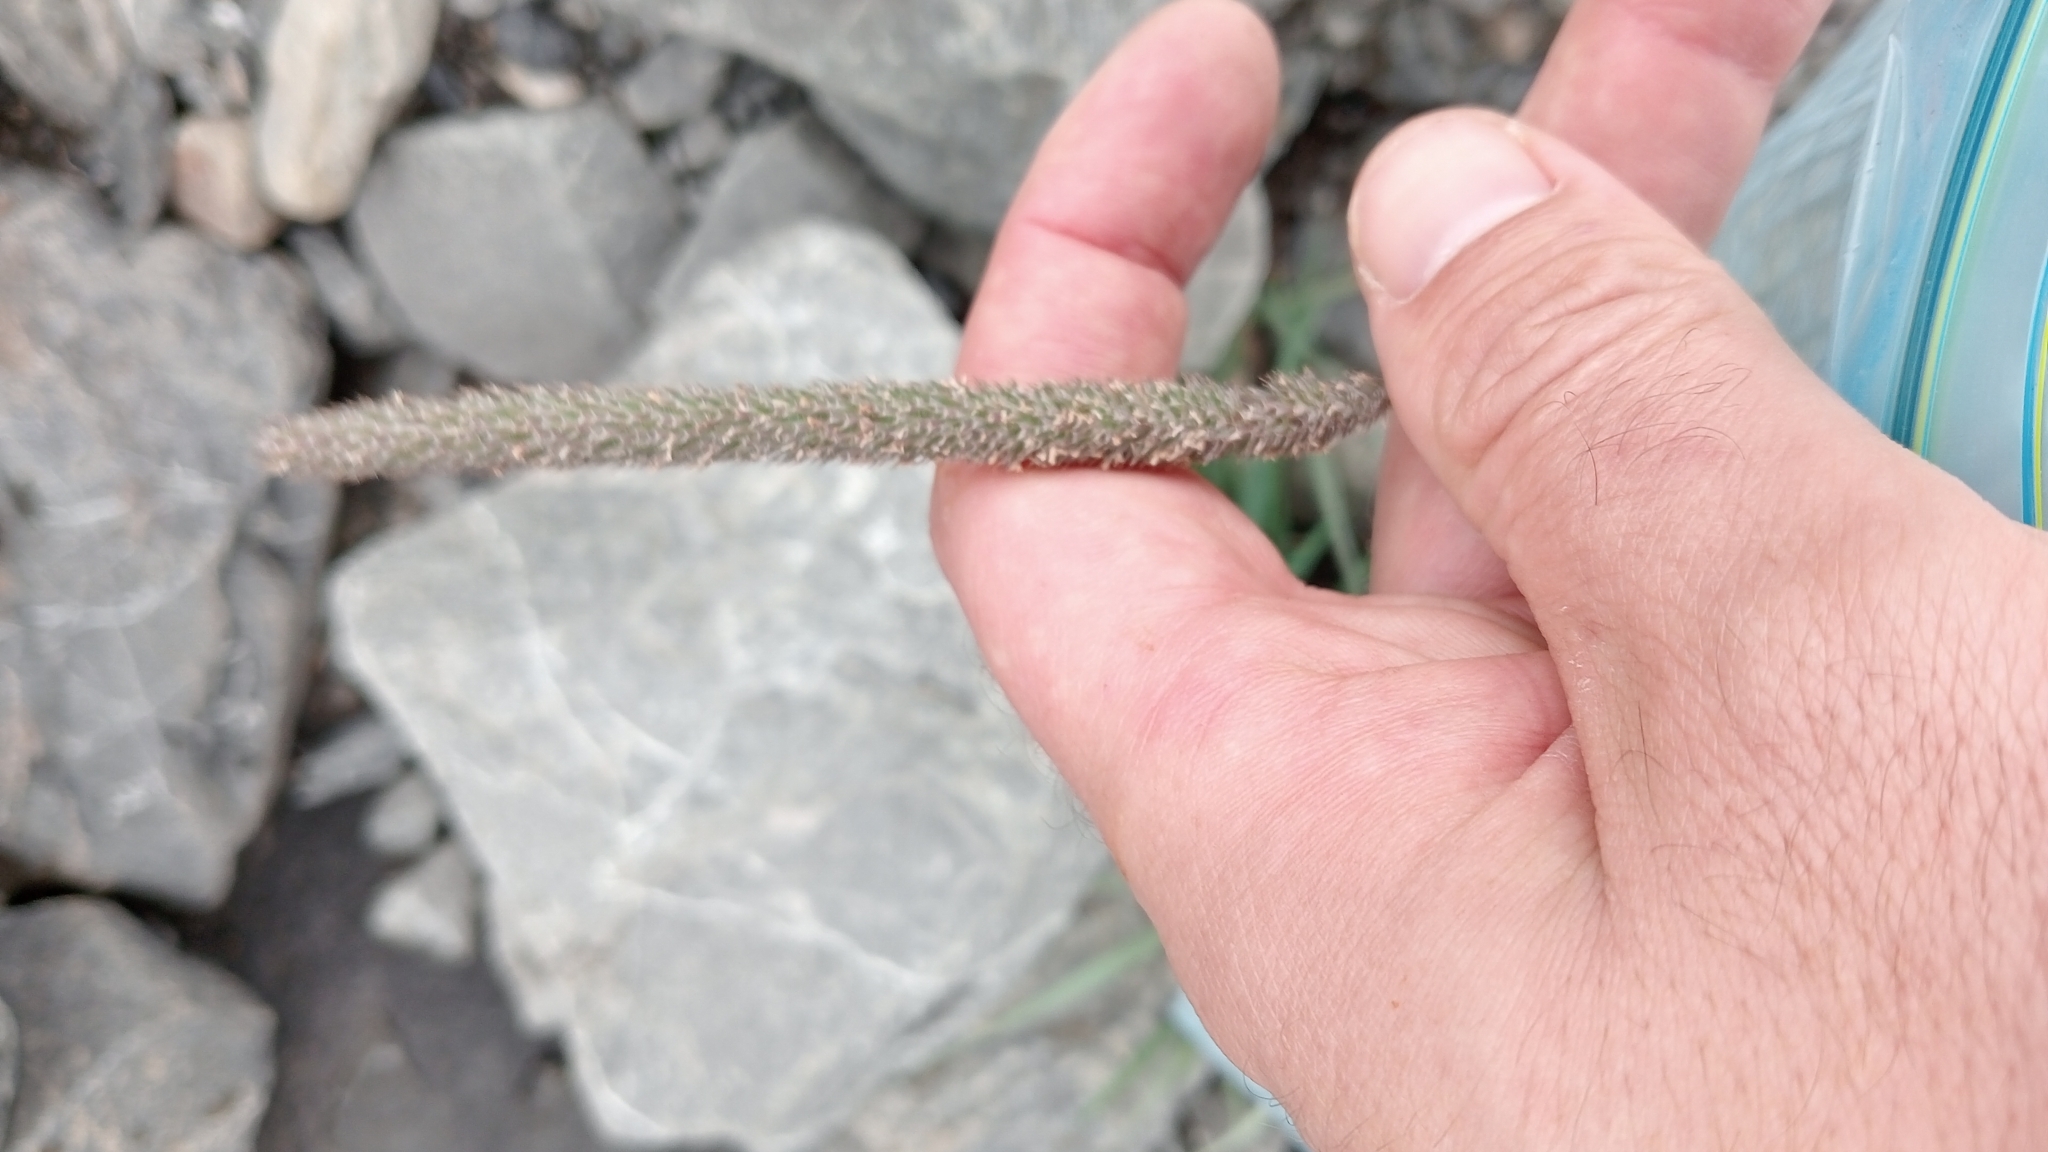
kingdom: Plantae
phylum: Tracheophyta
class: Liliopsida
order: Poales
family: Poaceae
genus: Phleum
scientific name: Phleum pratense
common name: Timothy grass
